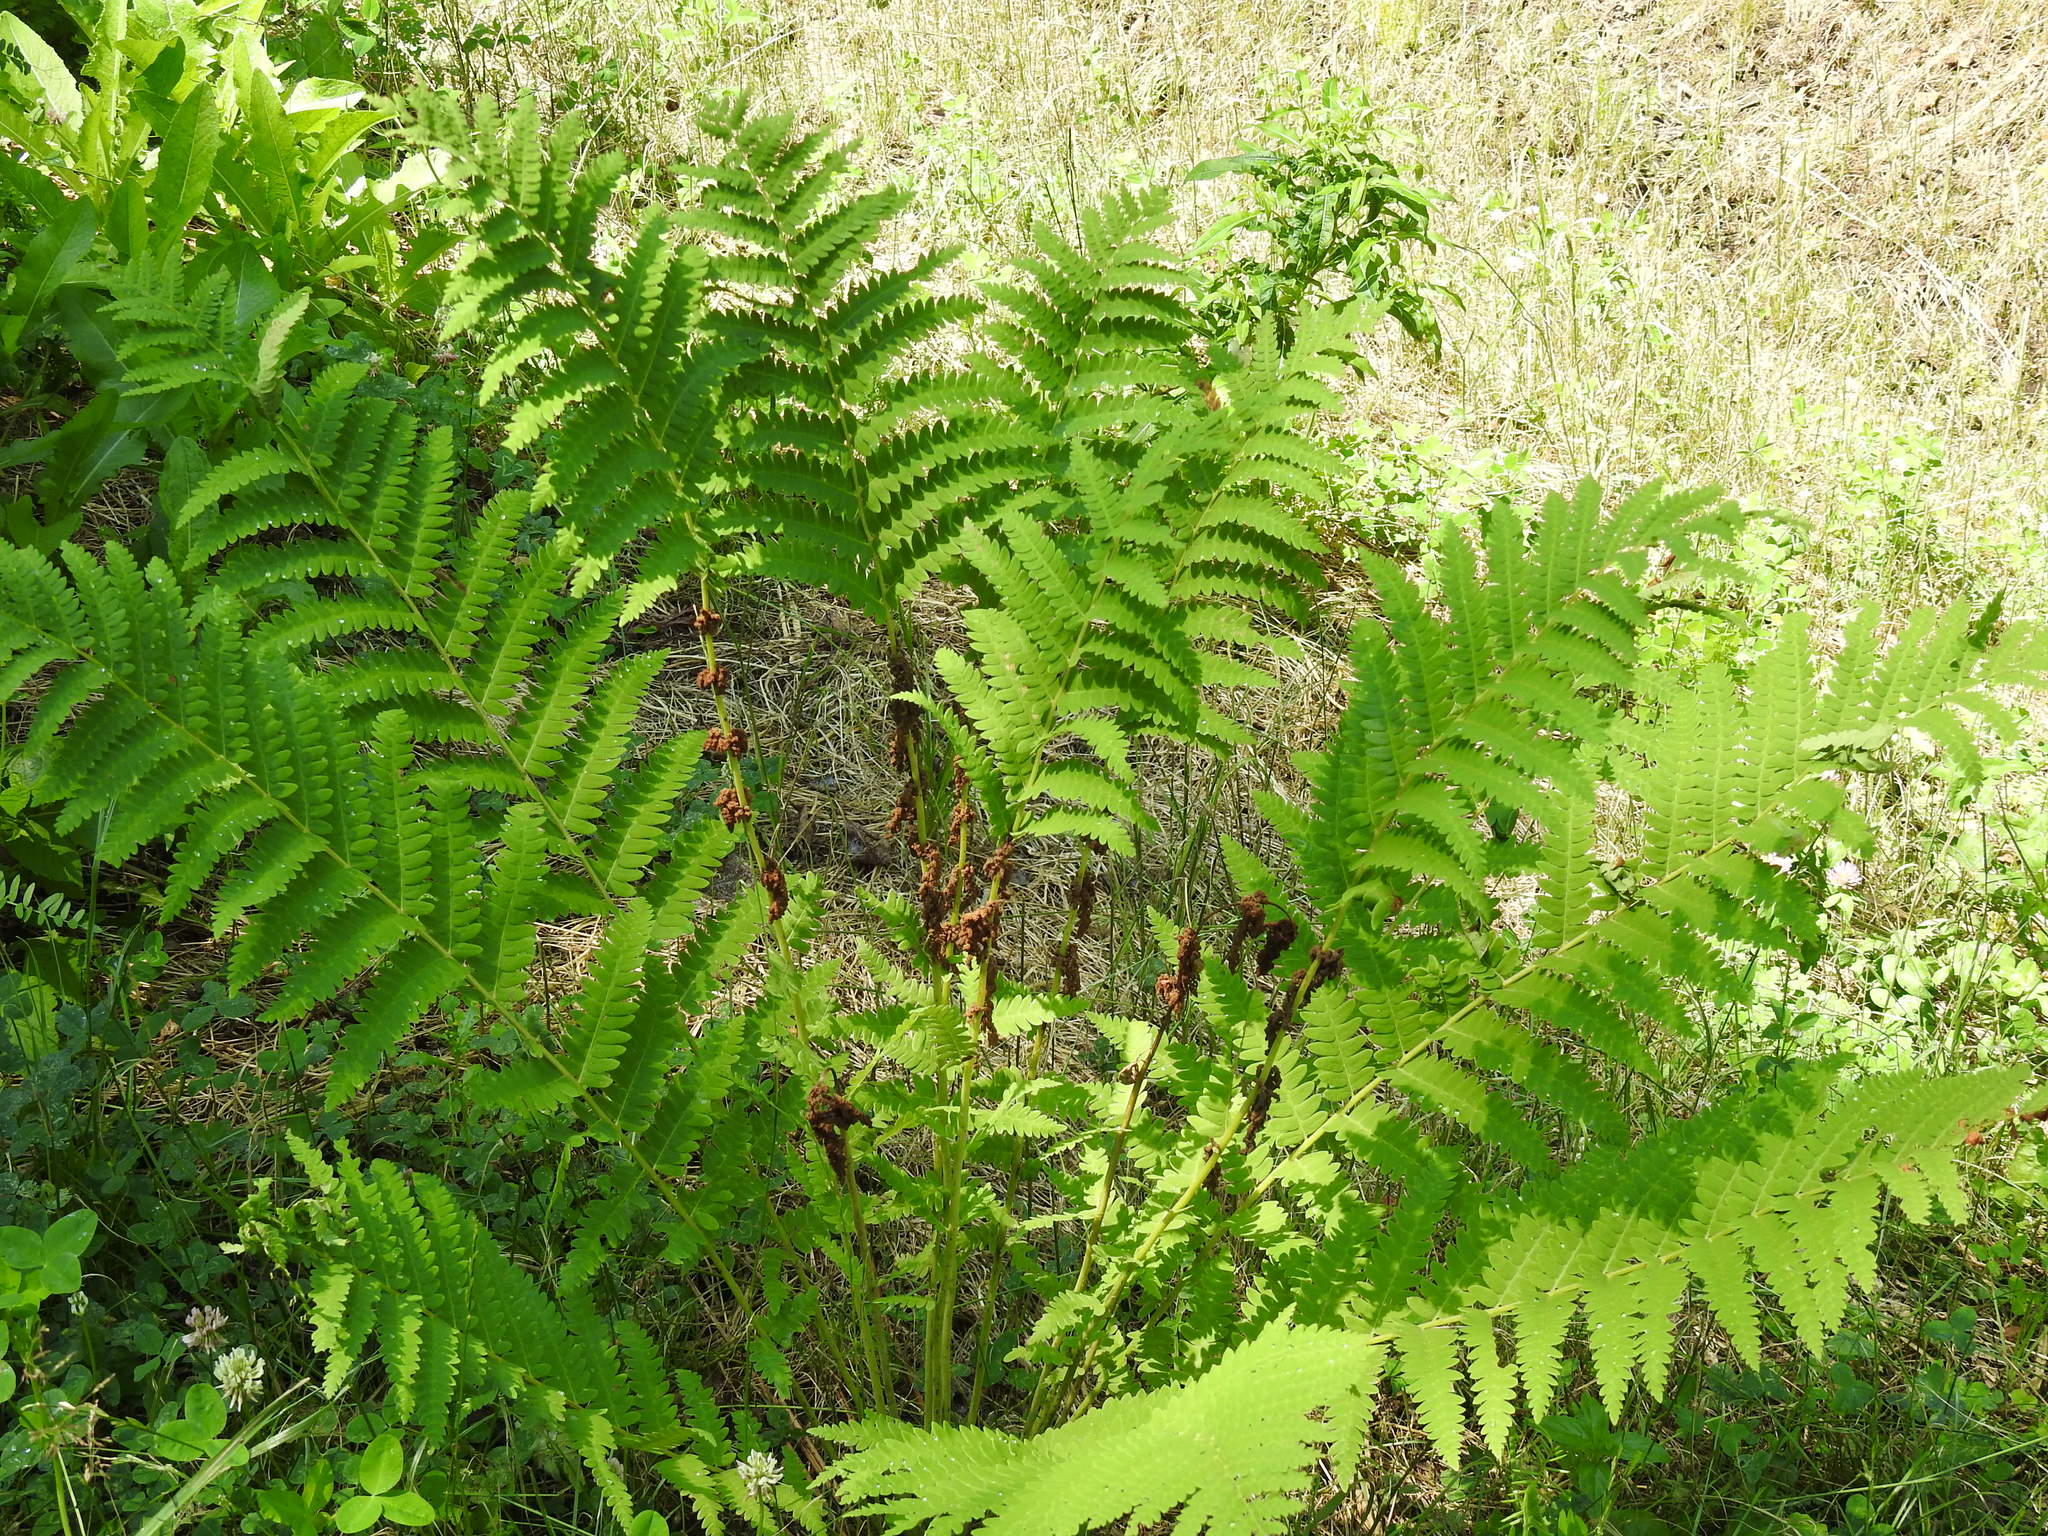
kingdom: Plantae
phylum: Tracheophyta
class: Polypodiopsida
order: Osmundales
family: Osmundaceae
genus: Claytosmunda
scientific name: Claytosmunda claytoniana
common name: Clayton's fern
